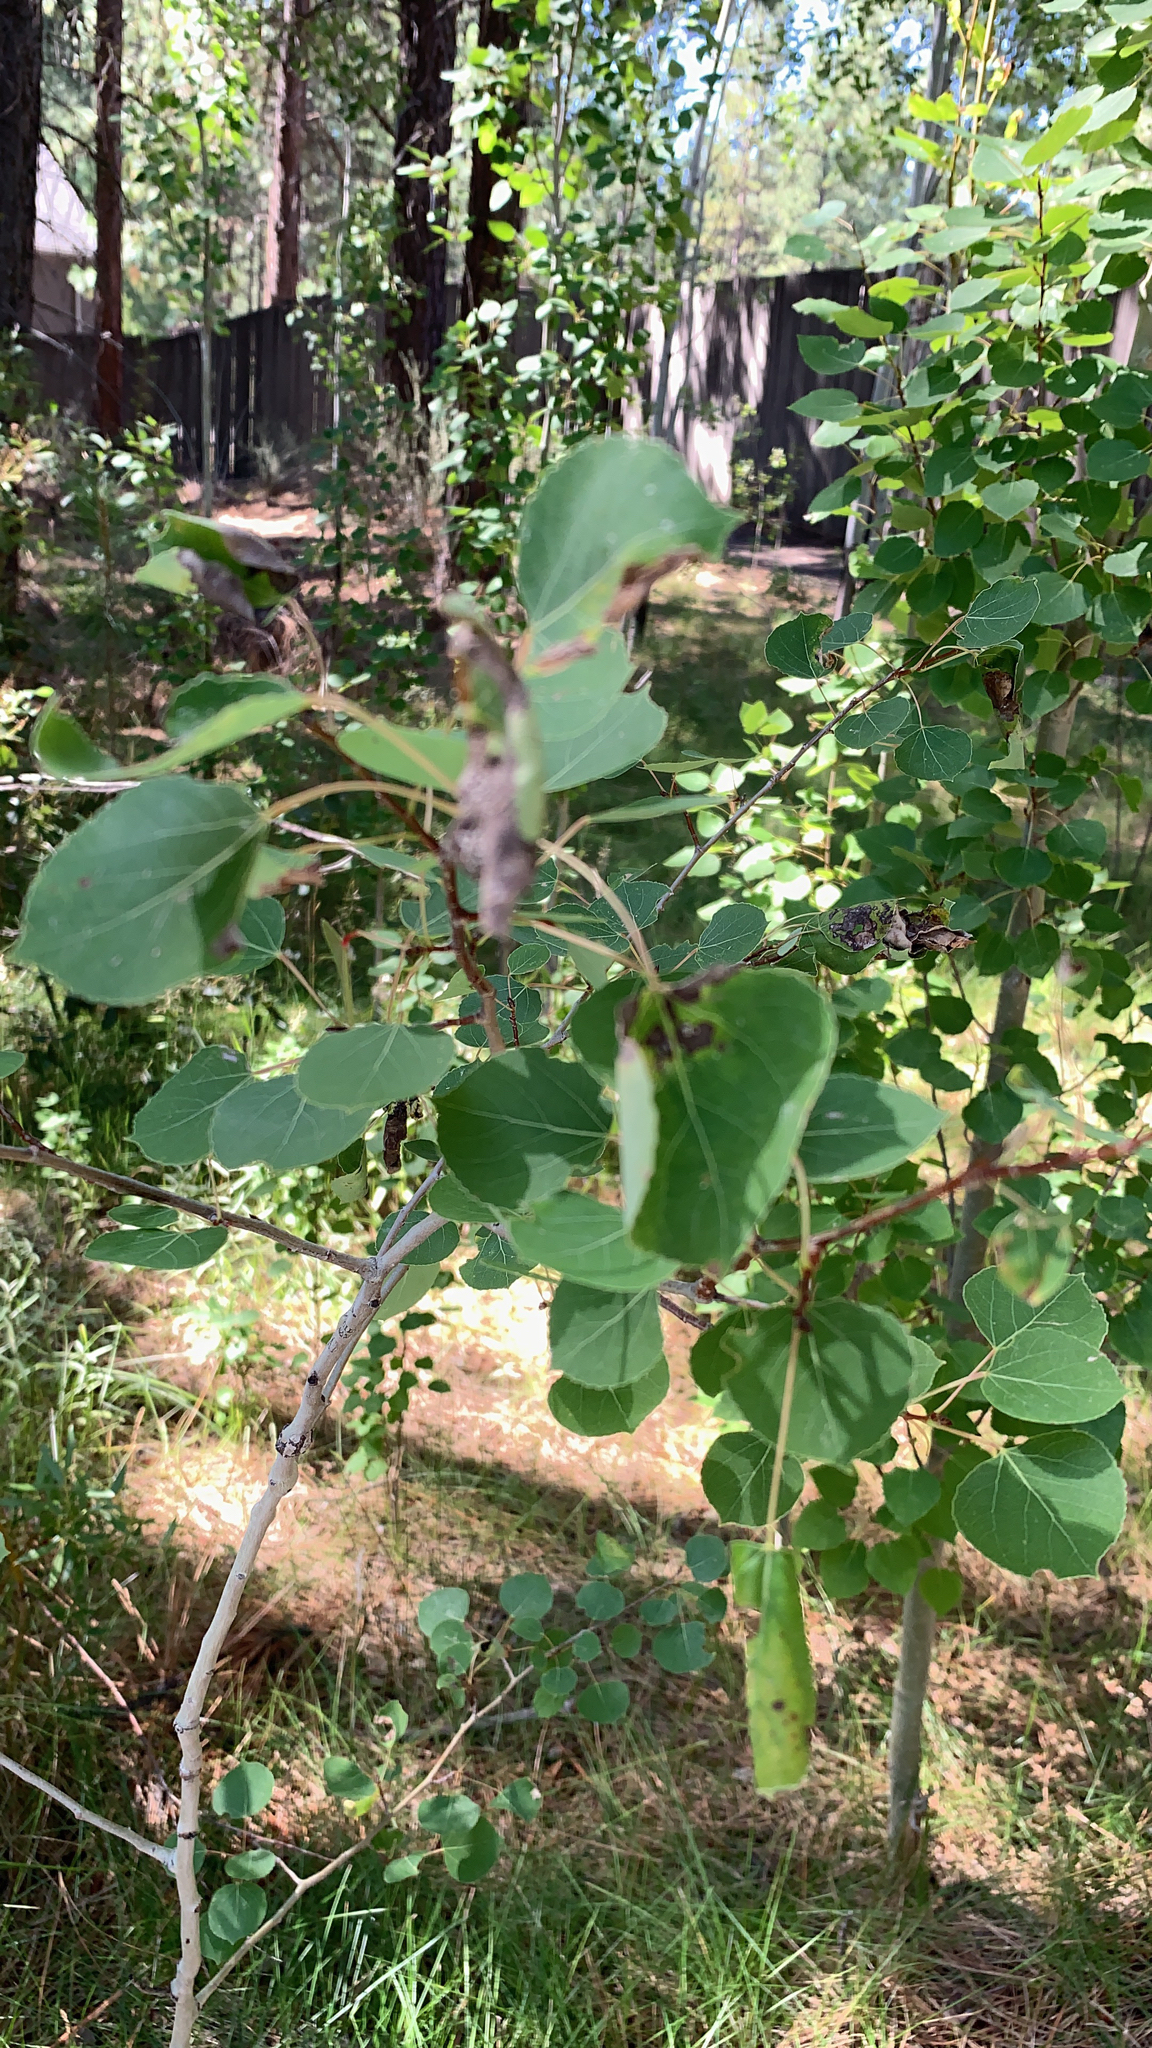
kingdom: Plantae
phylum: Tracheophyta
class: Magnoliopsida
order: Malpighiales
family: Salicaceae
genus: Populus
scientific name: Populus tremuloides
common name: Quaking aspen
